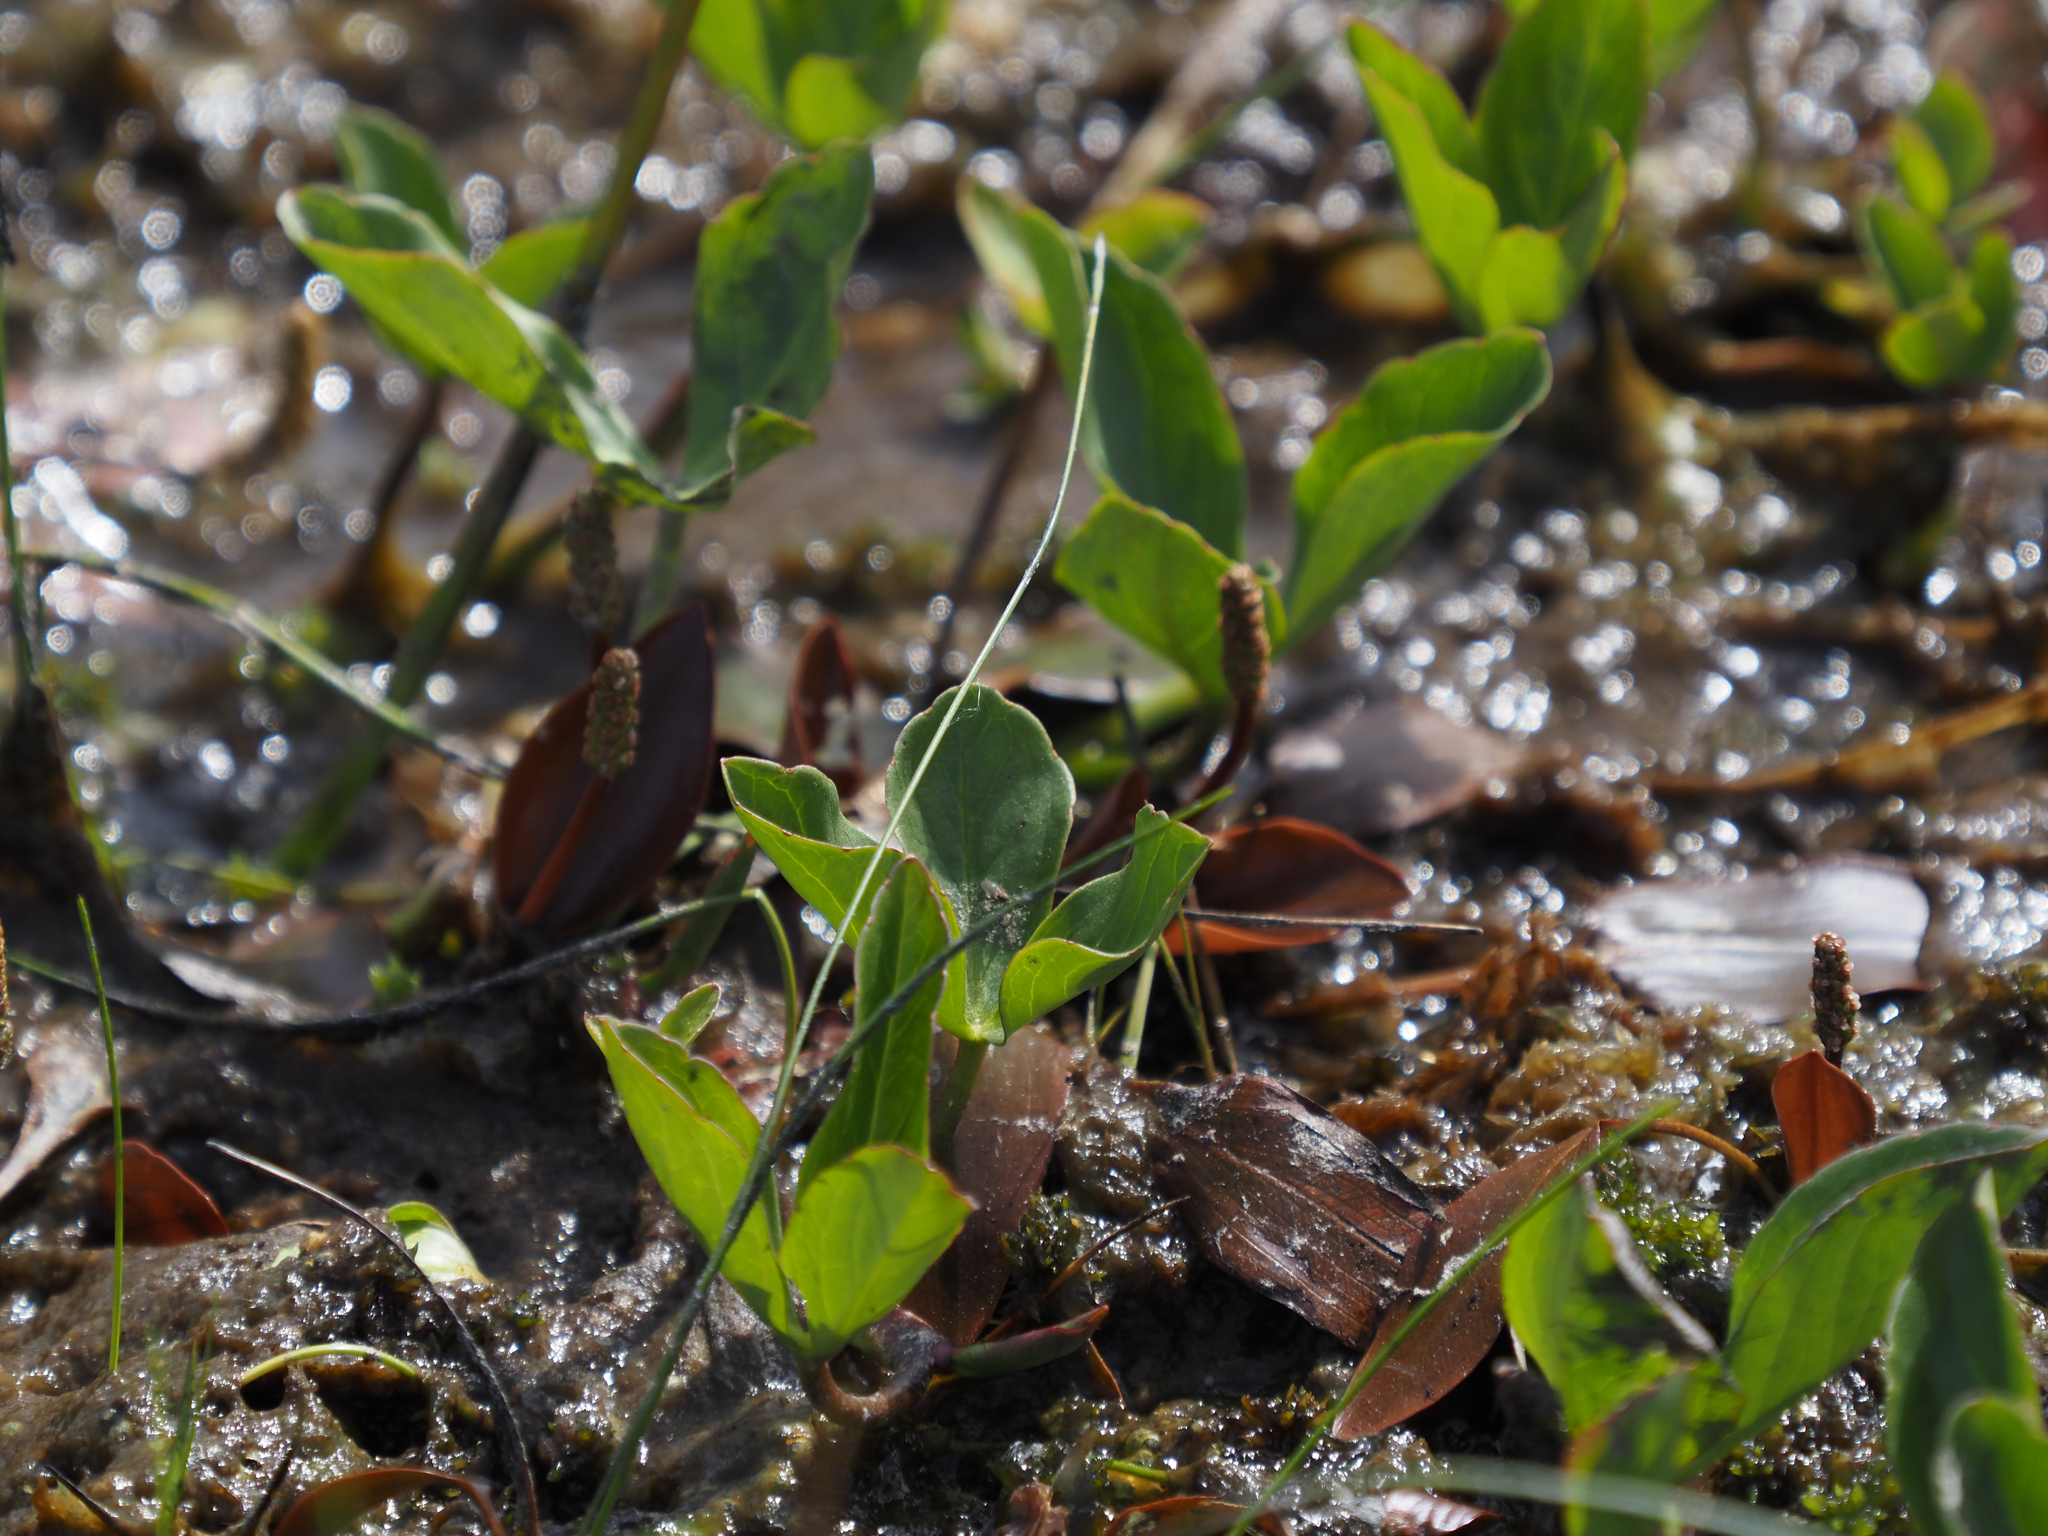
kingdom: Plantae
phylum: Tracheophyta
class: Magnoliopsida
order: Asterales
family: Menyanthaceae
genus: Menyanthes
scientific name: Menyanthes trifoliata
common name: Bogbean
